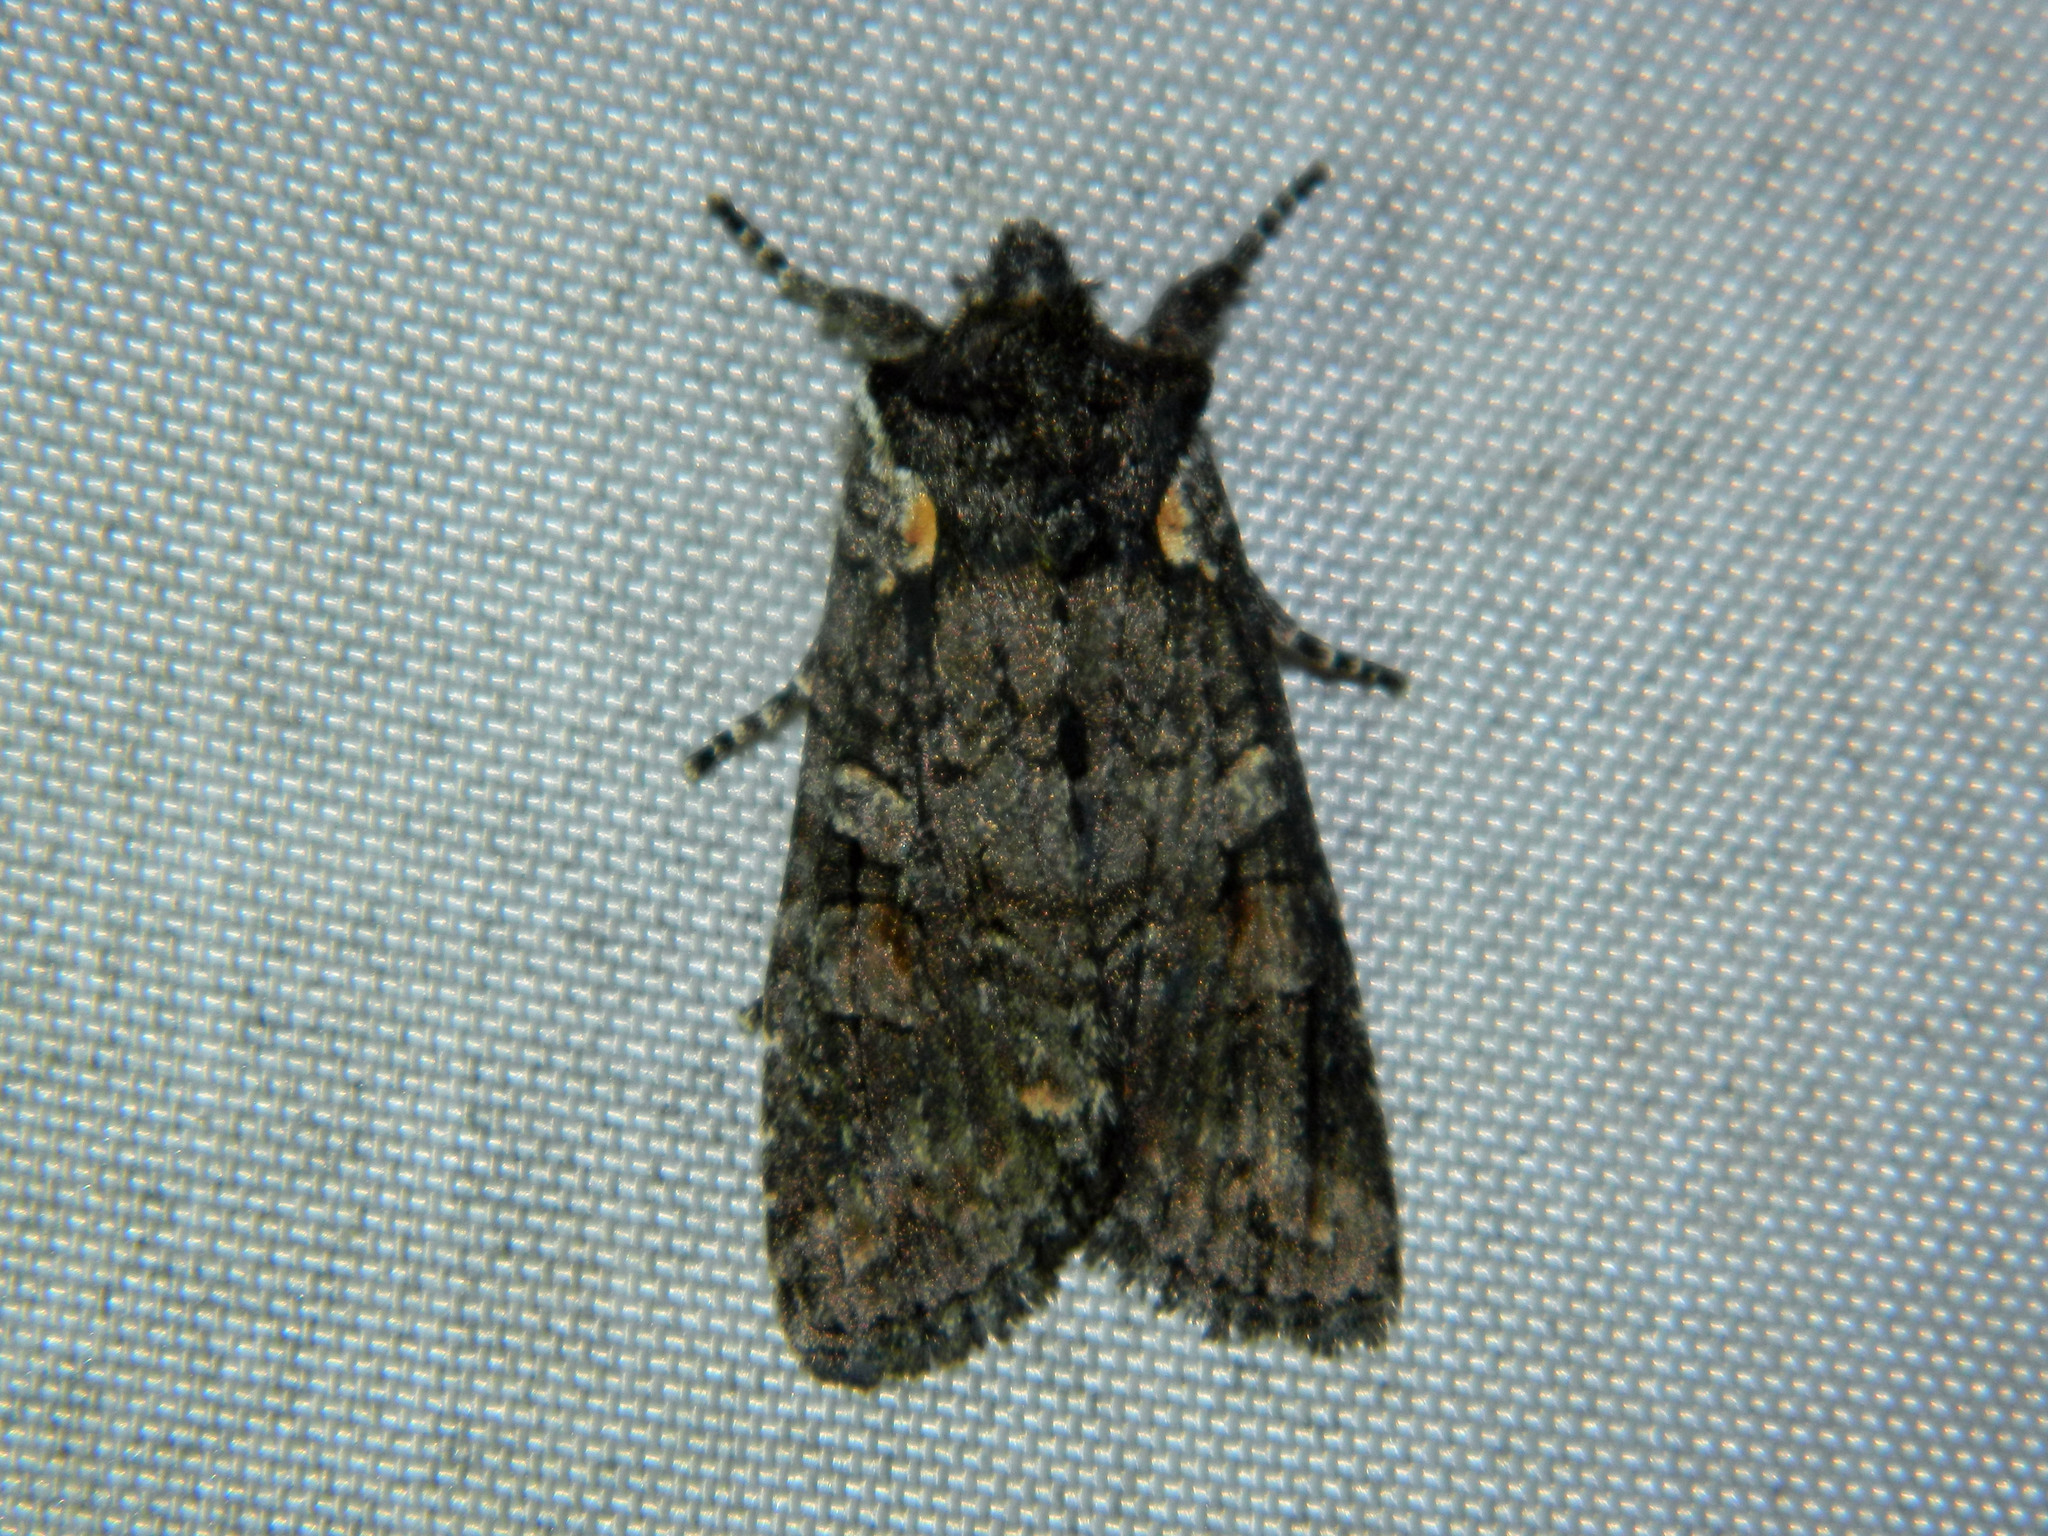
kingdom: Animalia
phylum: Arthropoda
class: Insecta
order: Lepidoptera
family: Noctuidae
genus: Lithophane
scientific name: Lithophane pexata
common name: Plush-naped pinion moth
